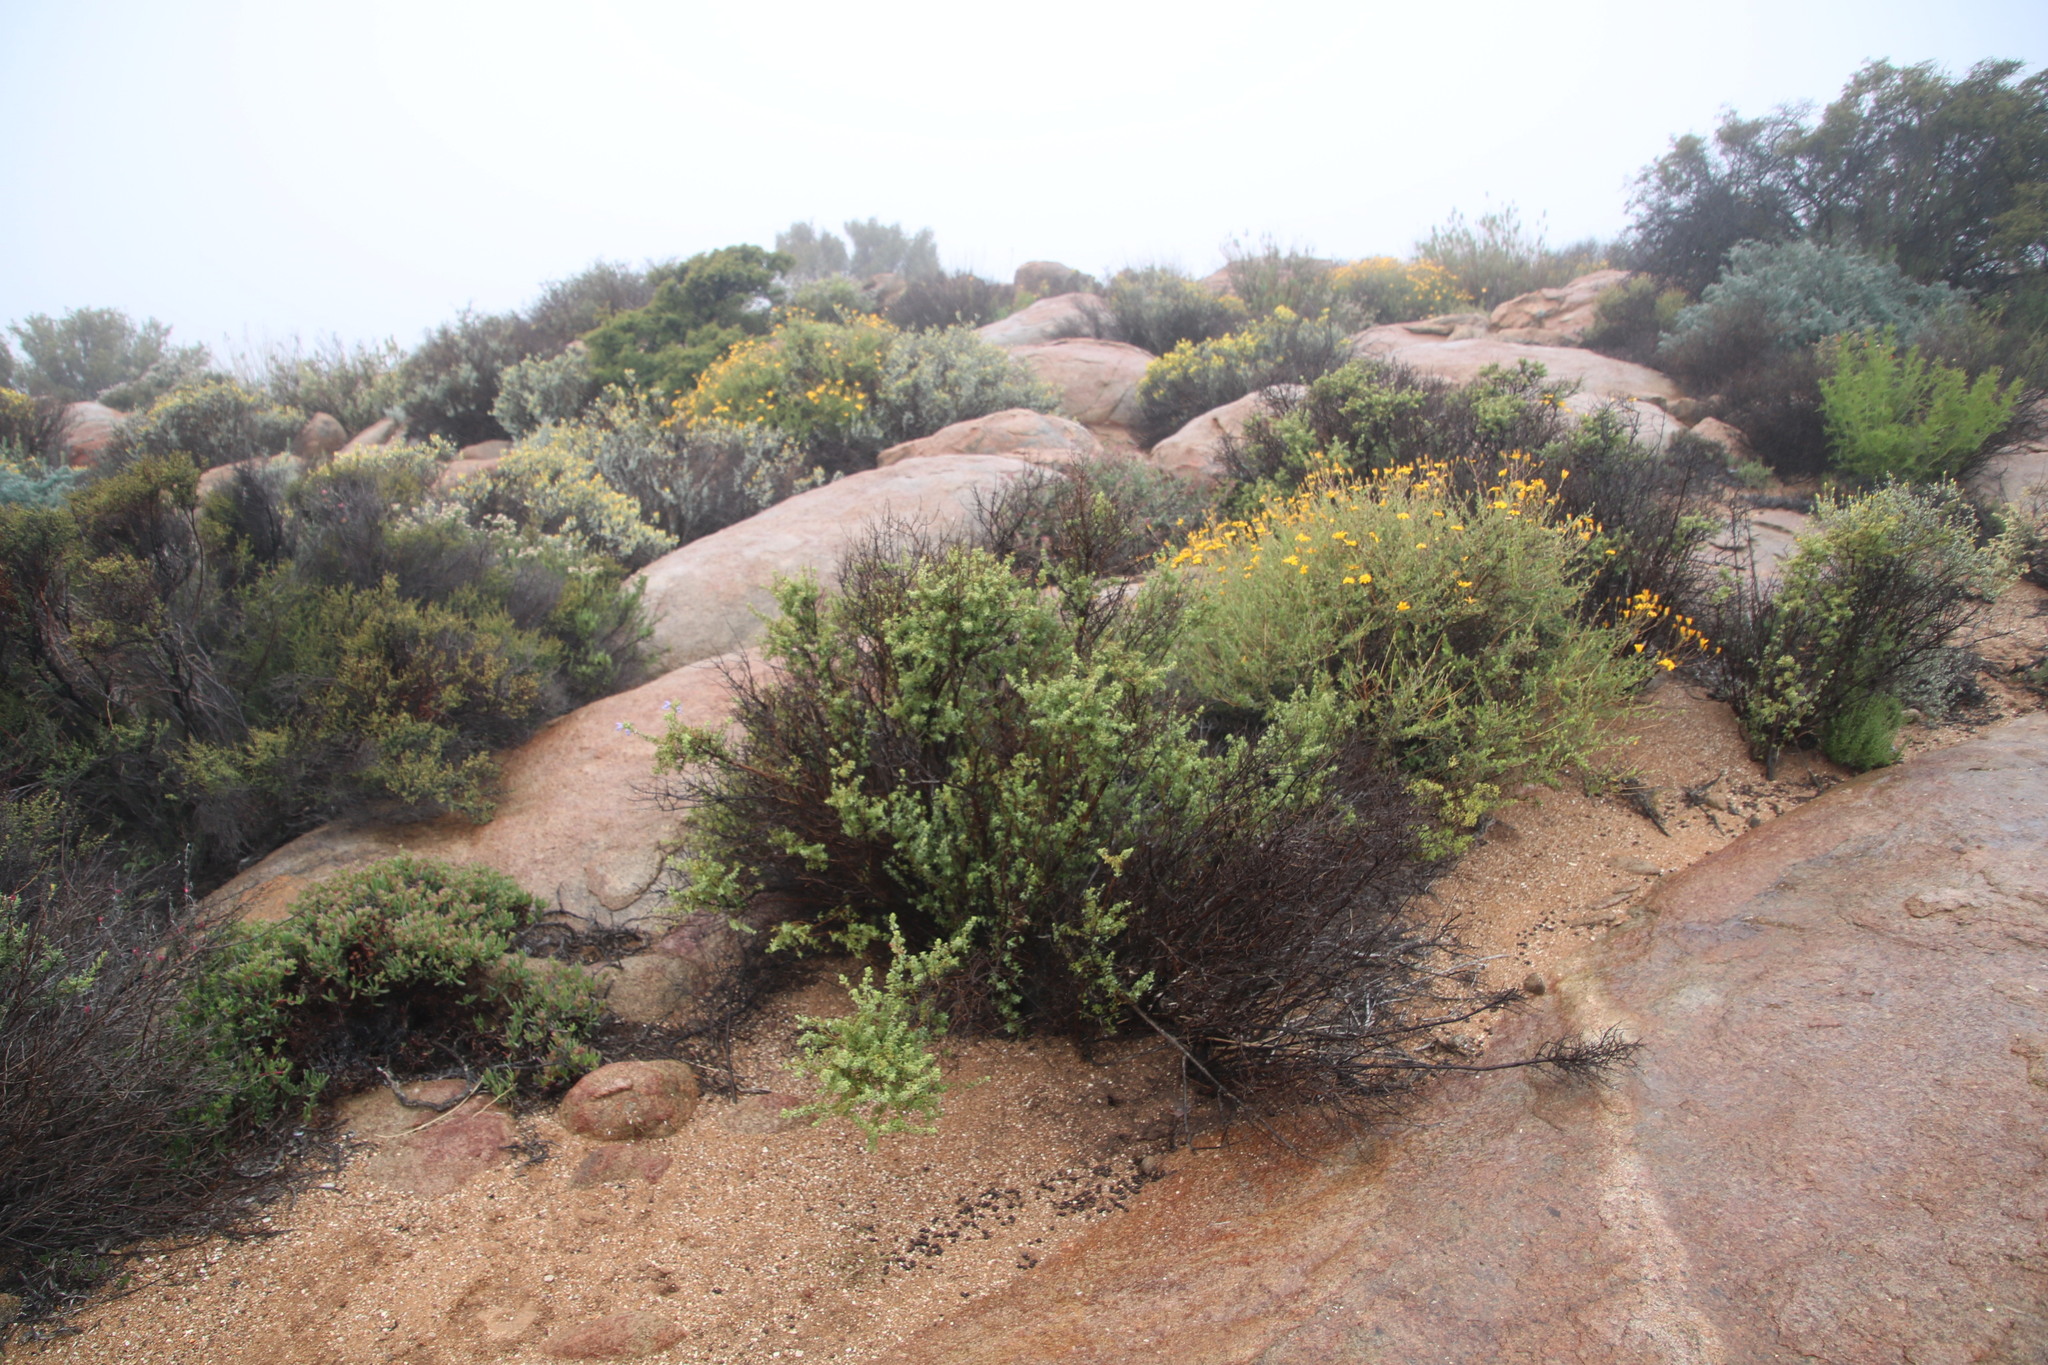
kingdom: Plantae
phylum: Tracheophyta
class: Magnoliopsida
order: Lamiales
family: Lamiaceae
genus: Salvia
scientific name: Salvia dentata
